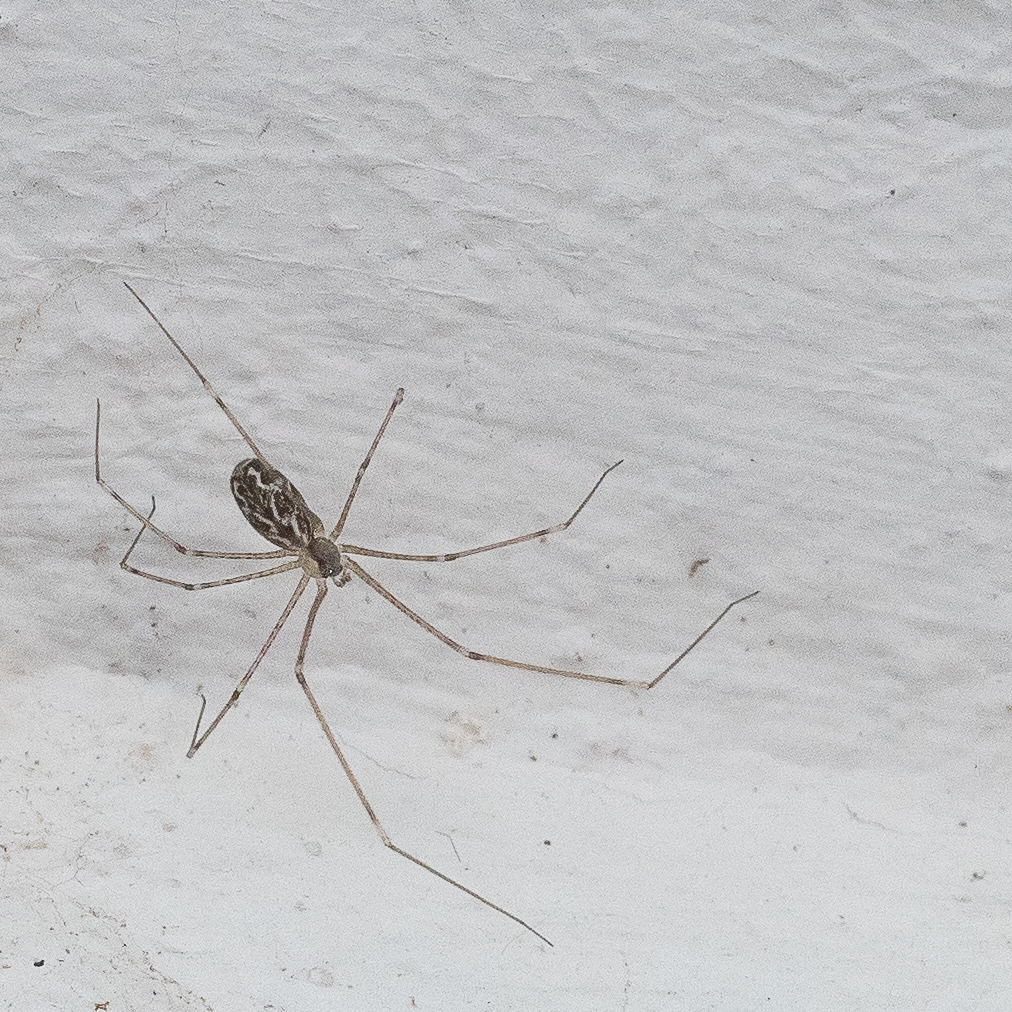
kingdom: Animalia
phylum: Arthropoda
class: Arachnida
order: Araneae
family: Pholcidae
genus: Holocnemus
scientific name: Holocnemus pluchei
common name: Marbled cellar spider
